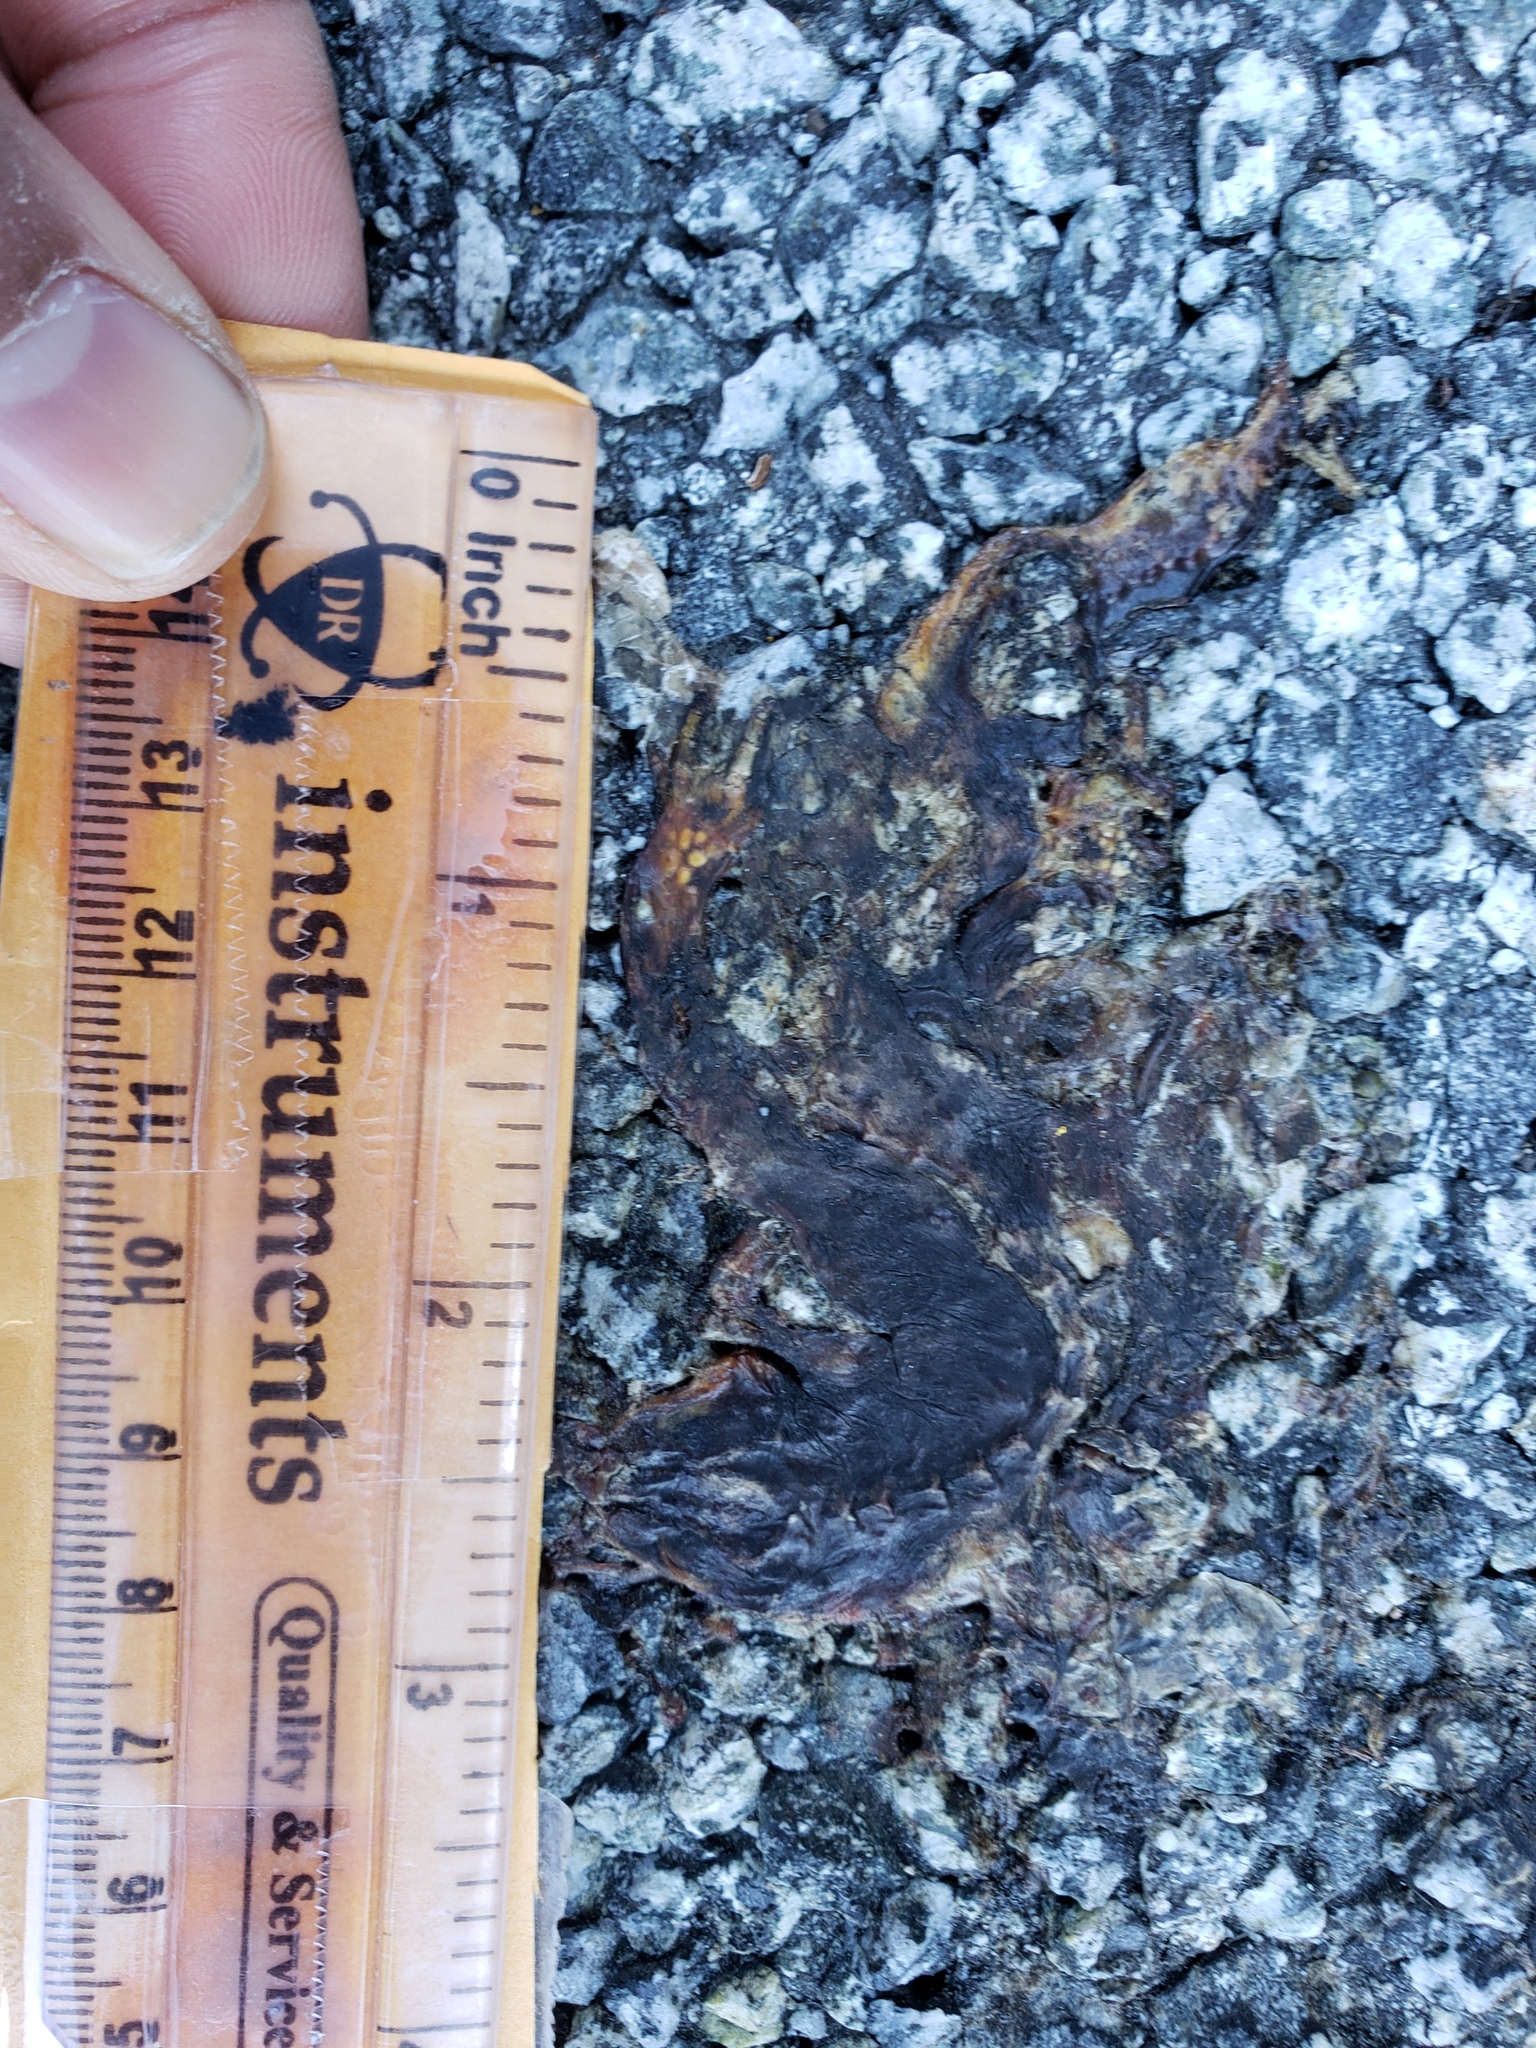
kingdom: Animalia
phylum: Chordata
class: Amphibia
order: Caudata
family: Salamandridae
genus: Taricha
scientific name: Taricha
